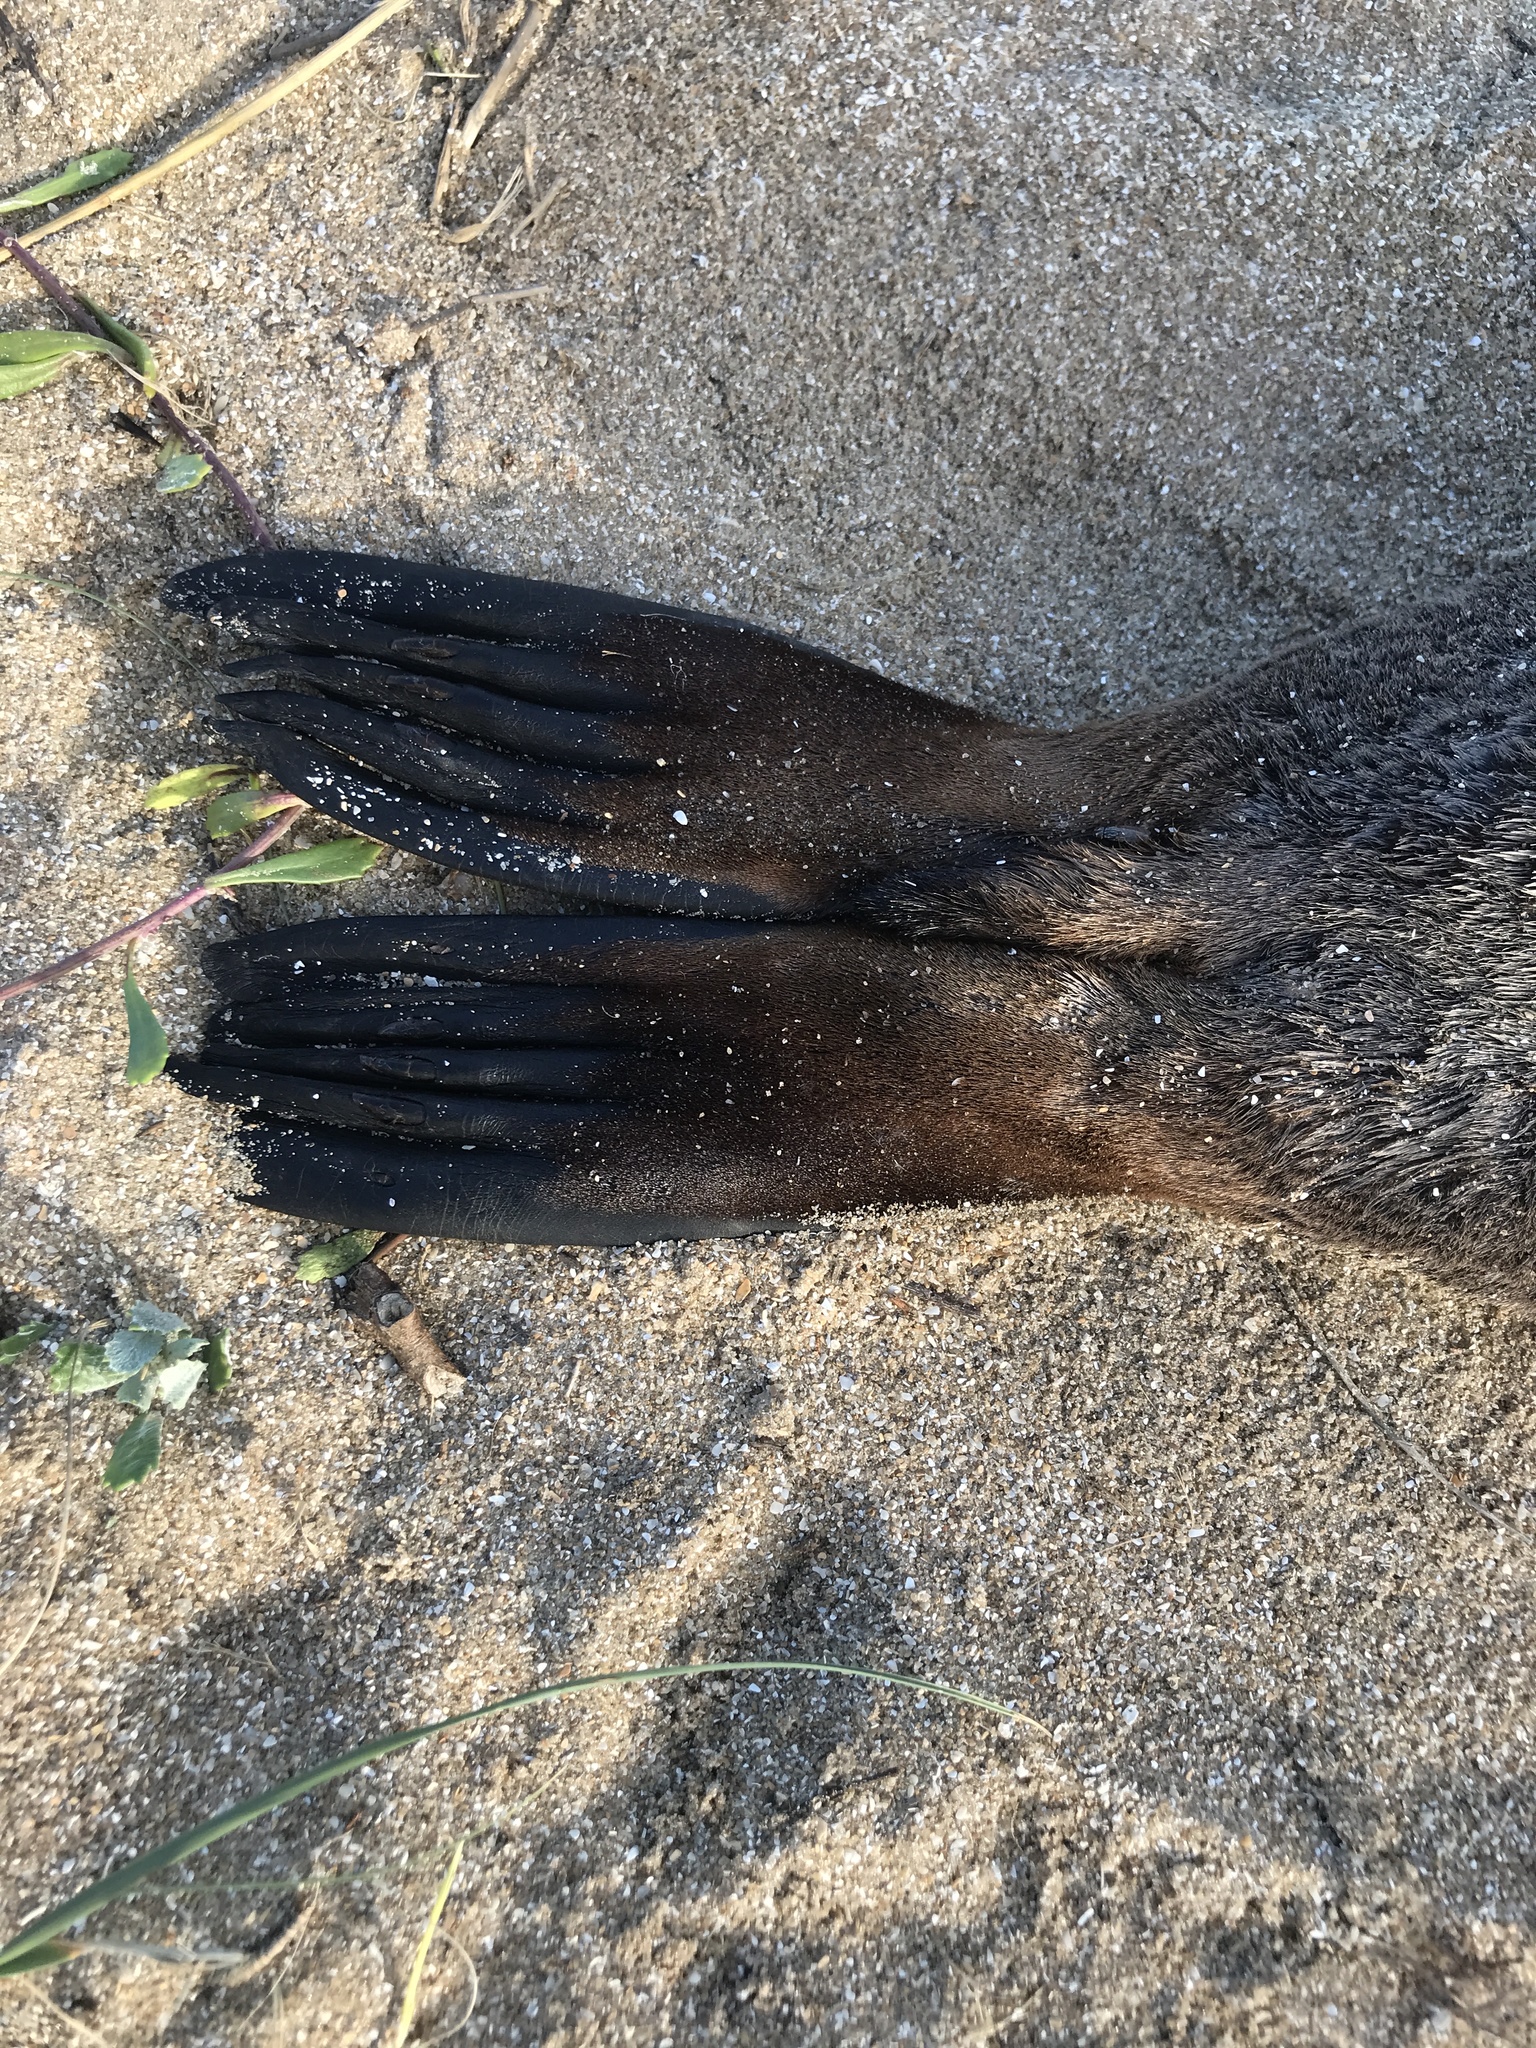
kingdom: Animalia
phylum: Chordata
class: Mammalia
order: Carnivora
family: Otariidae
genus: Arctocephalus
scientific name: Arctocephalus australis
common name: South american fur seal
